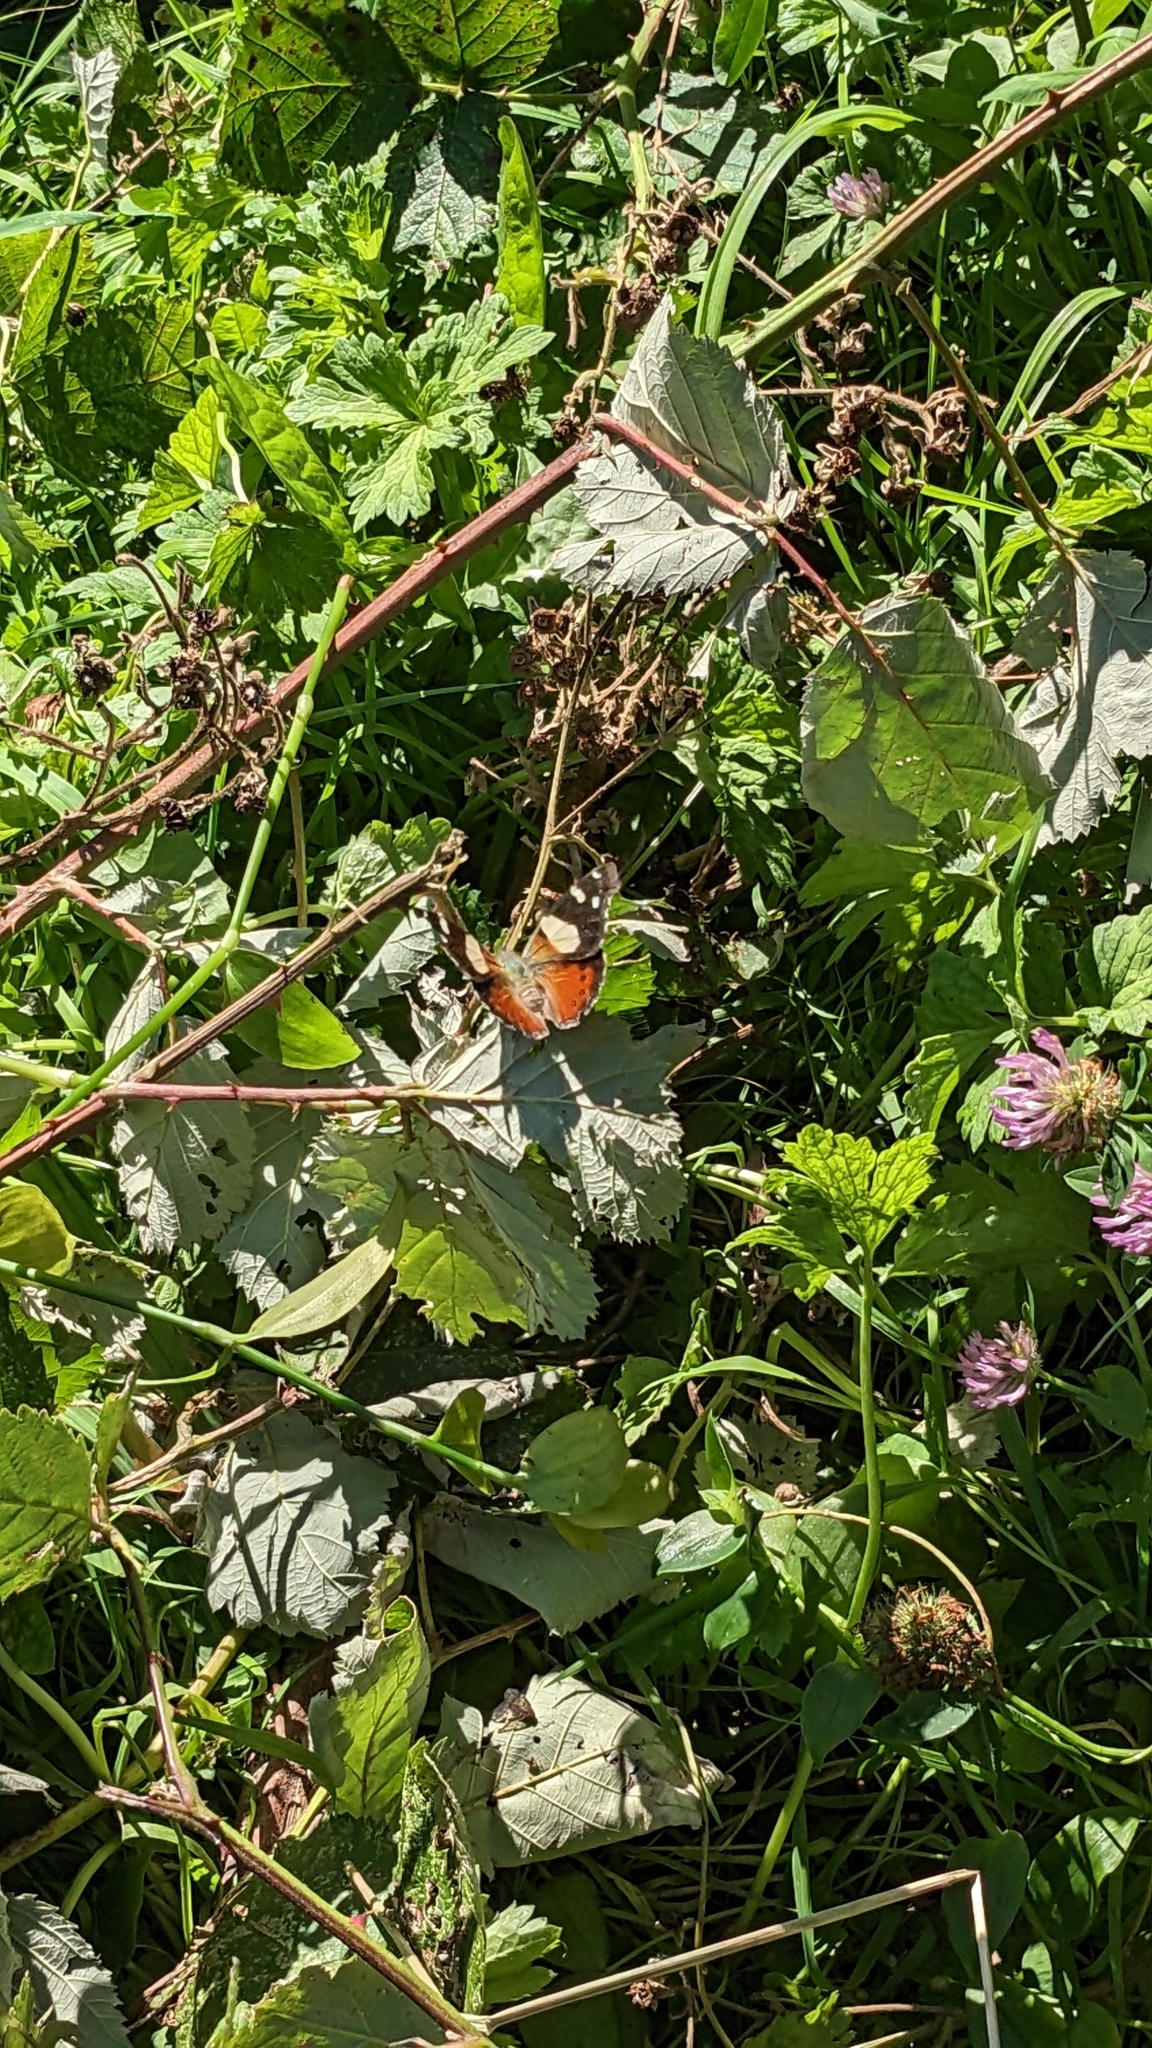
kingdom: Animalia
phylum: Arthropoda
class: Insecta
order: Lepidoptera
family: Nymphalidae
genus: Vanessa
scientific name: Vanessa itea
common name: Yellow admiral
